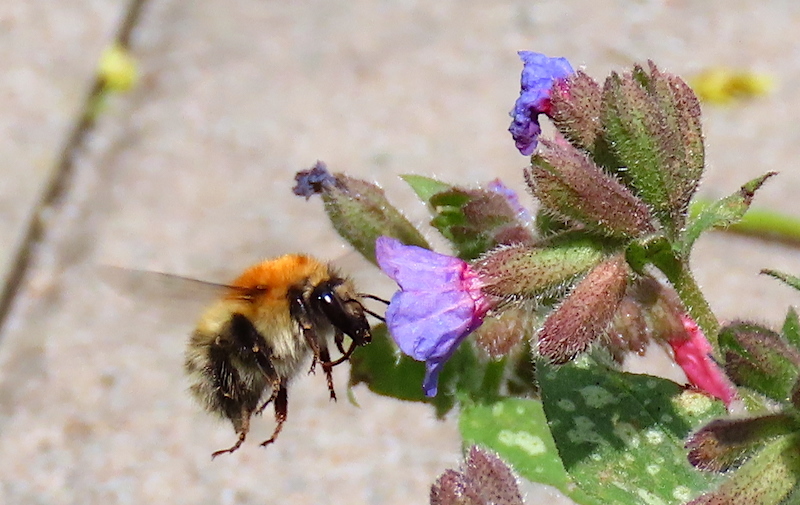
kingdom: Animalia
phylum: Arthropoda
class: Insecta
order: Hymenoptera
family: Apidae
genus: Bombus
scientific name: Bombus pascuorum
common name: Common carder bee
